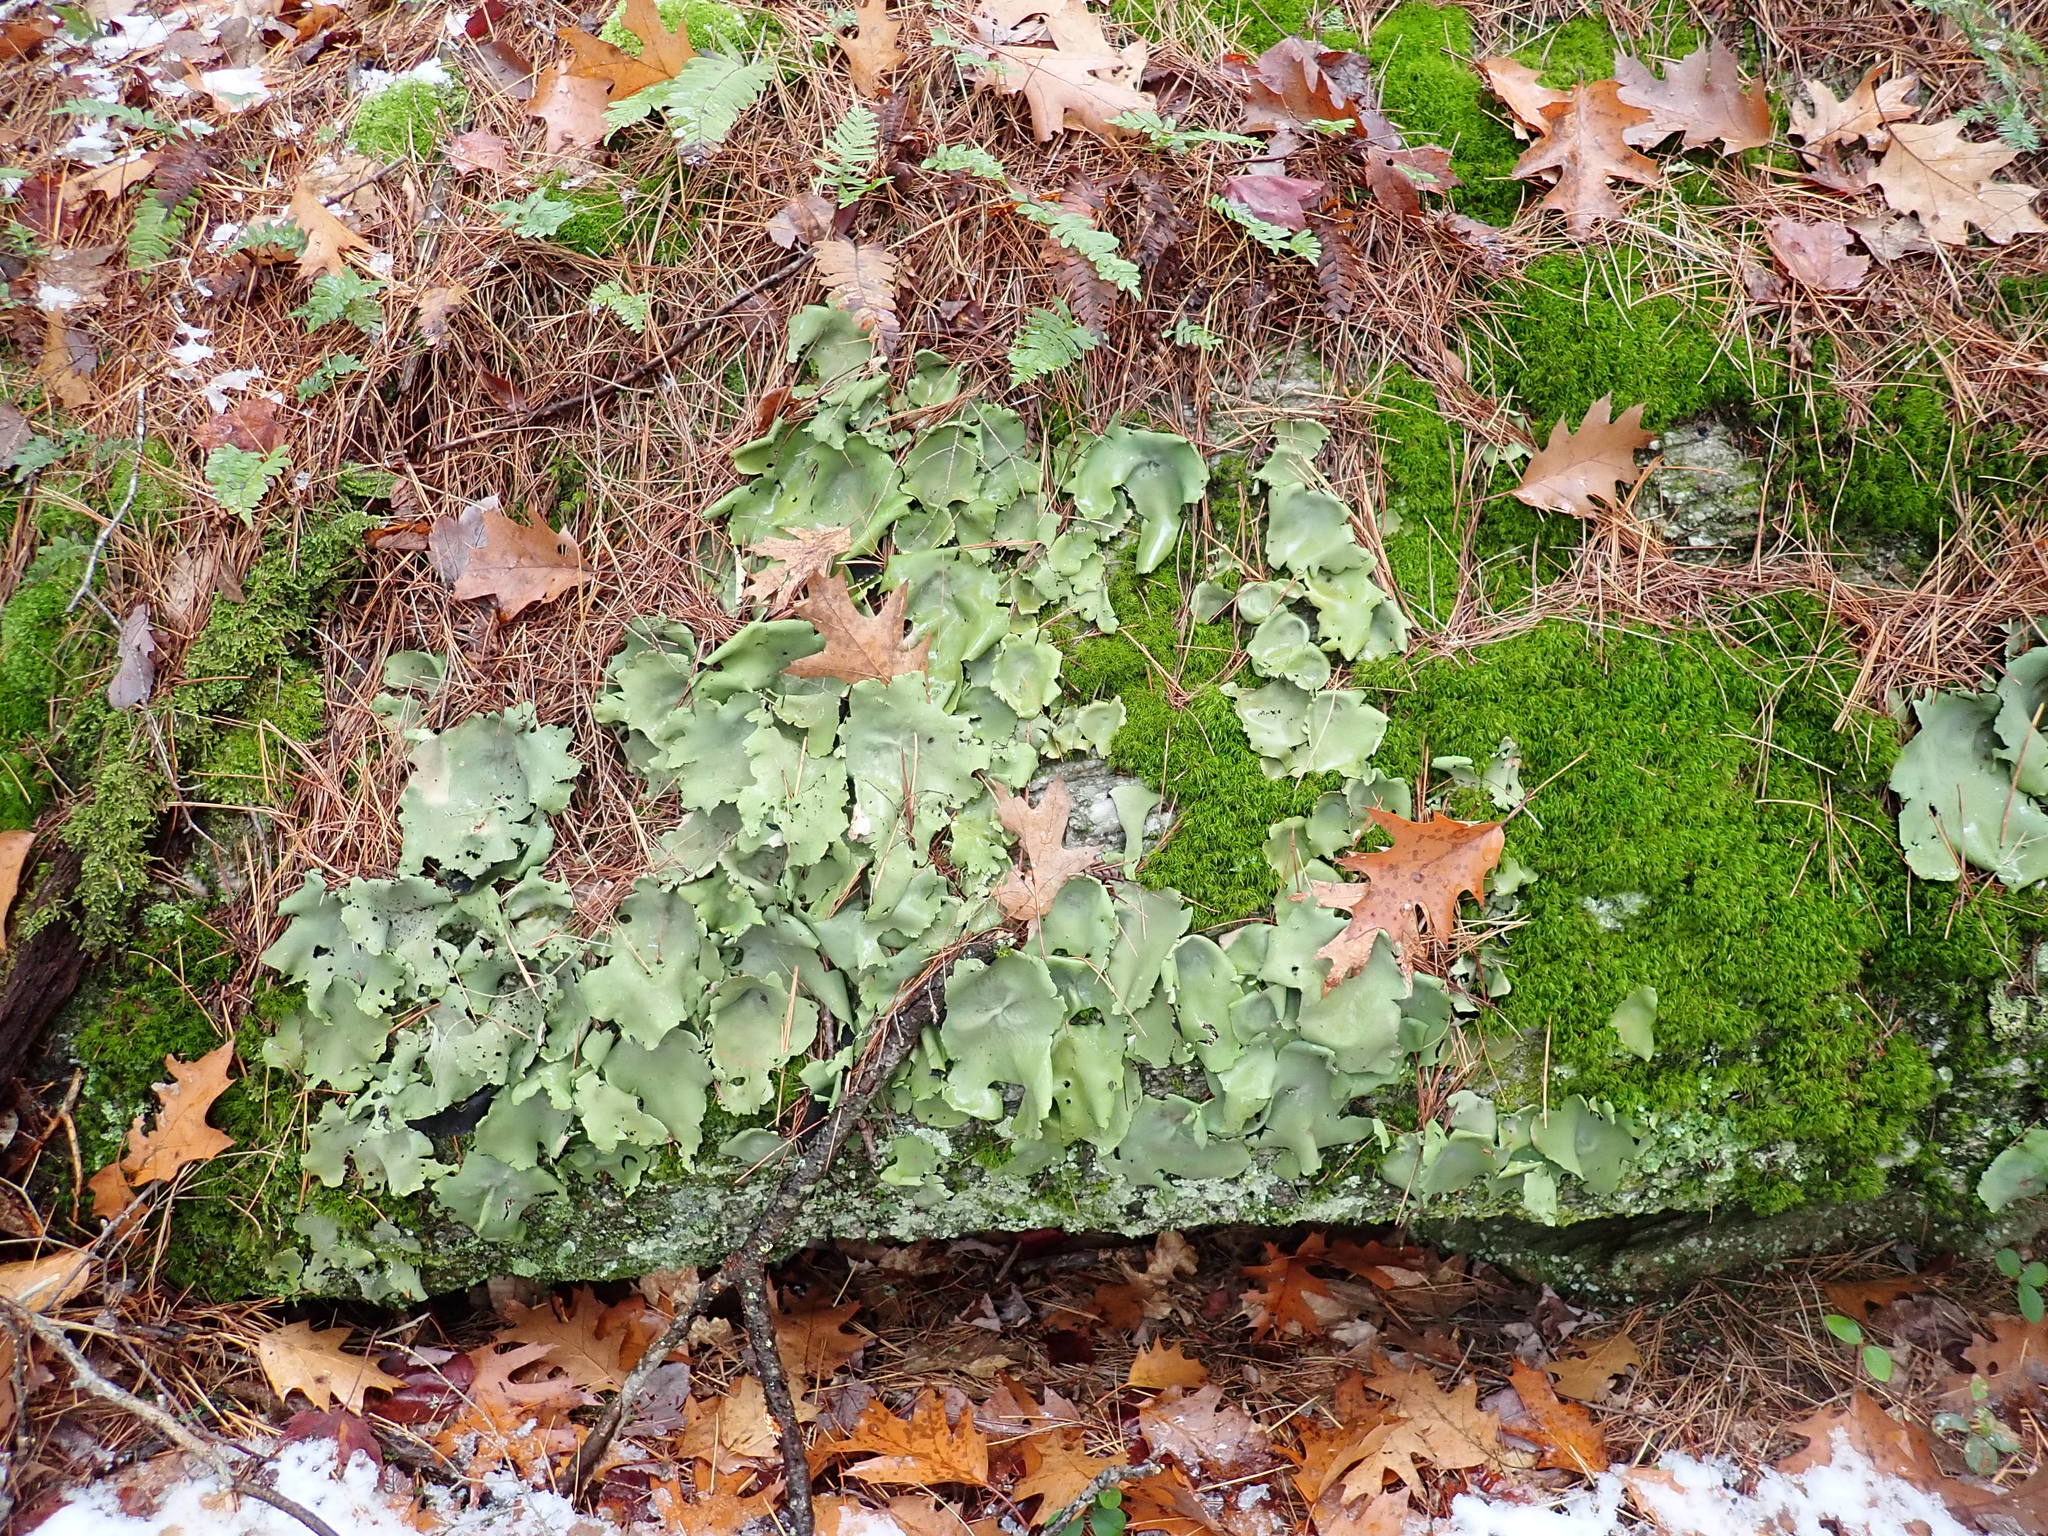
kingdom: Fungi
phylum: Ascomycota
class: Lecanoromycetes
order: Umbilicariales
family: Umbilicariaceae
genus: Umbilicaria
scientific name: Umbilicaria mammulata
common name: Smooth rock tripe
